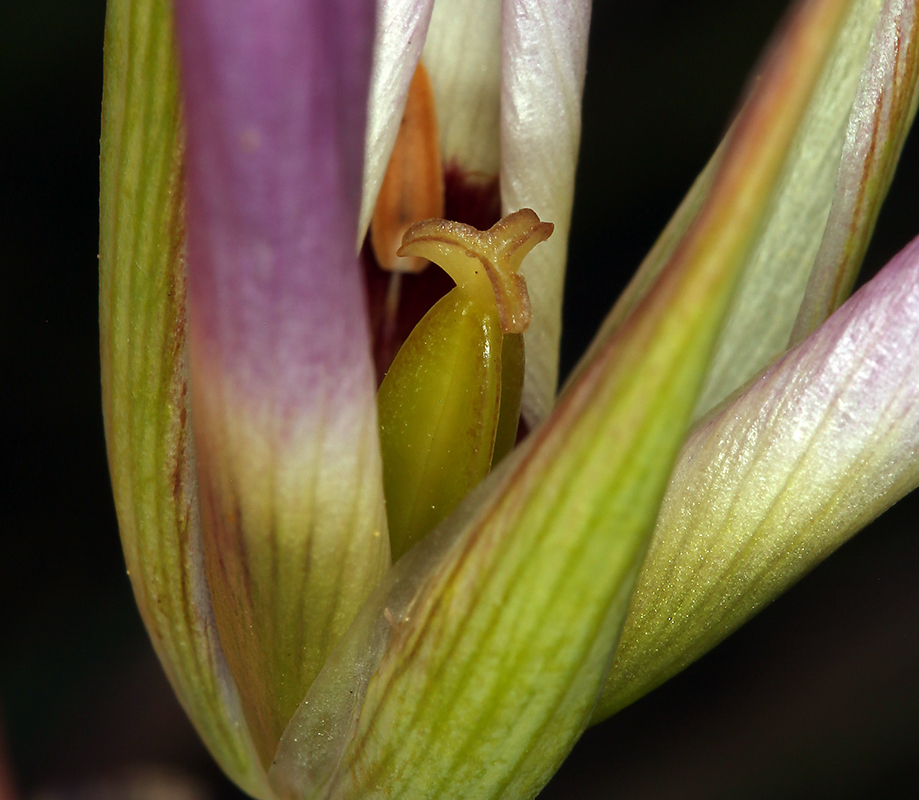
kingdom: Plantae
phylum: Tracheophyta
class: Liliopsida
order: Liliales
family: Liliaceae
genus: Calochortus
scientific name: Calochortus catalinae
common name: Catalina mariposa-lily
